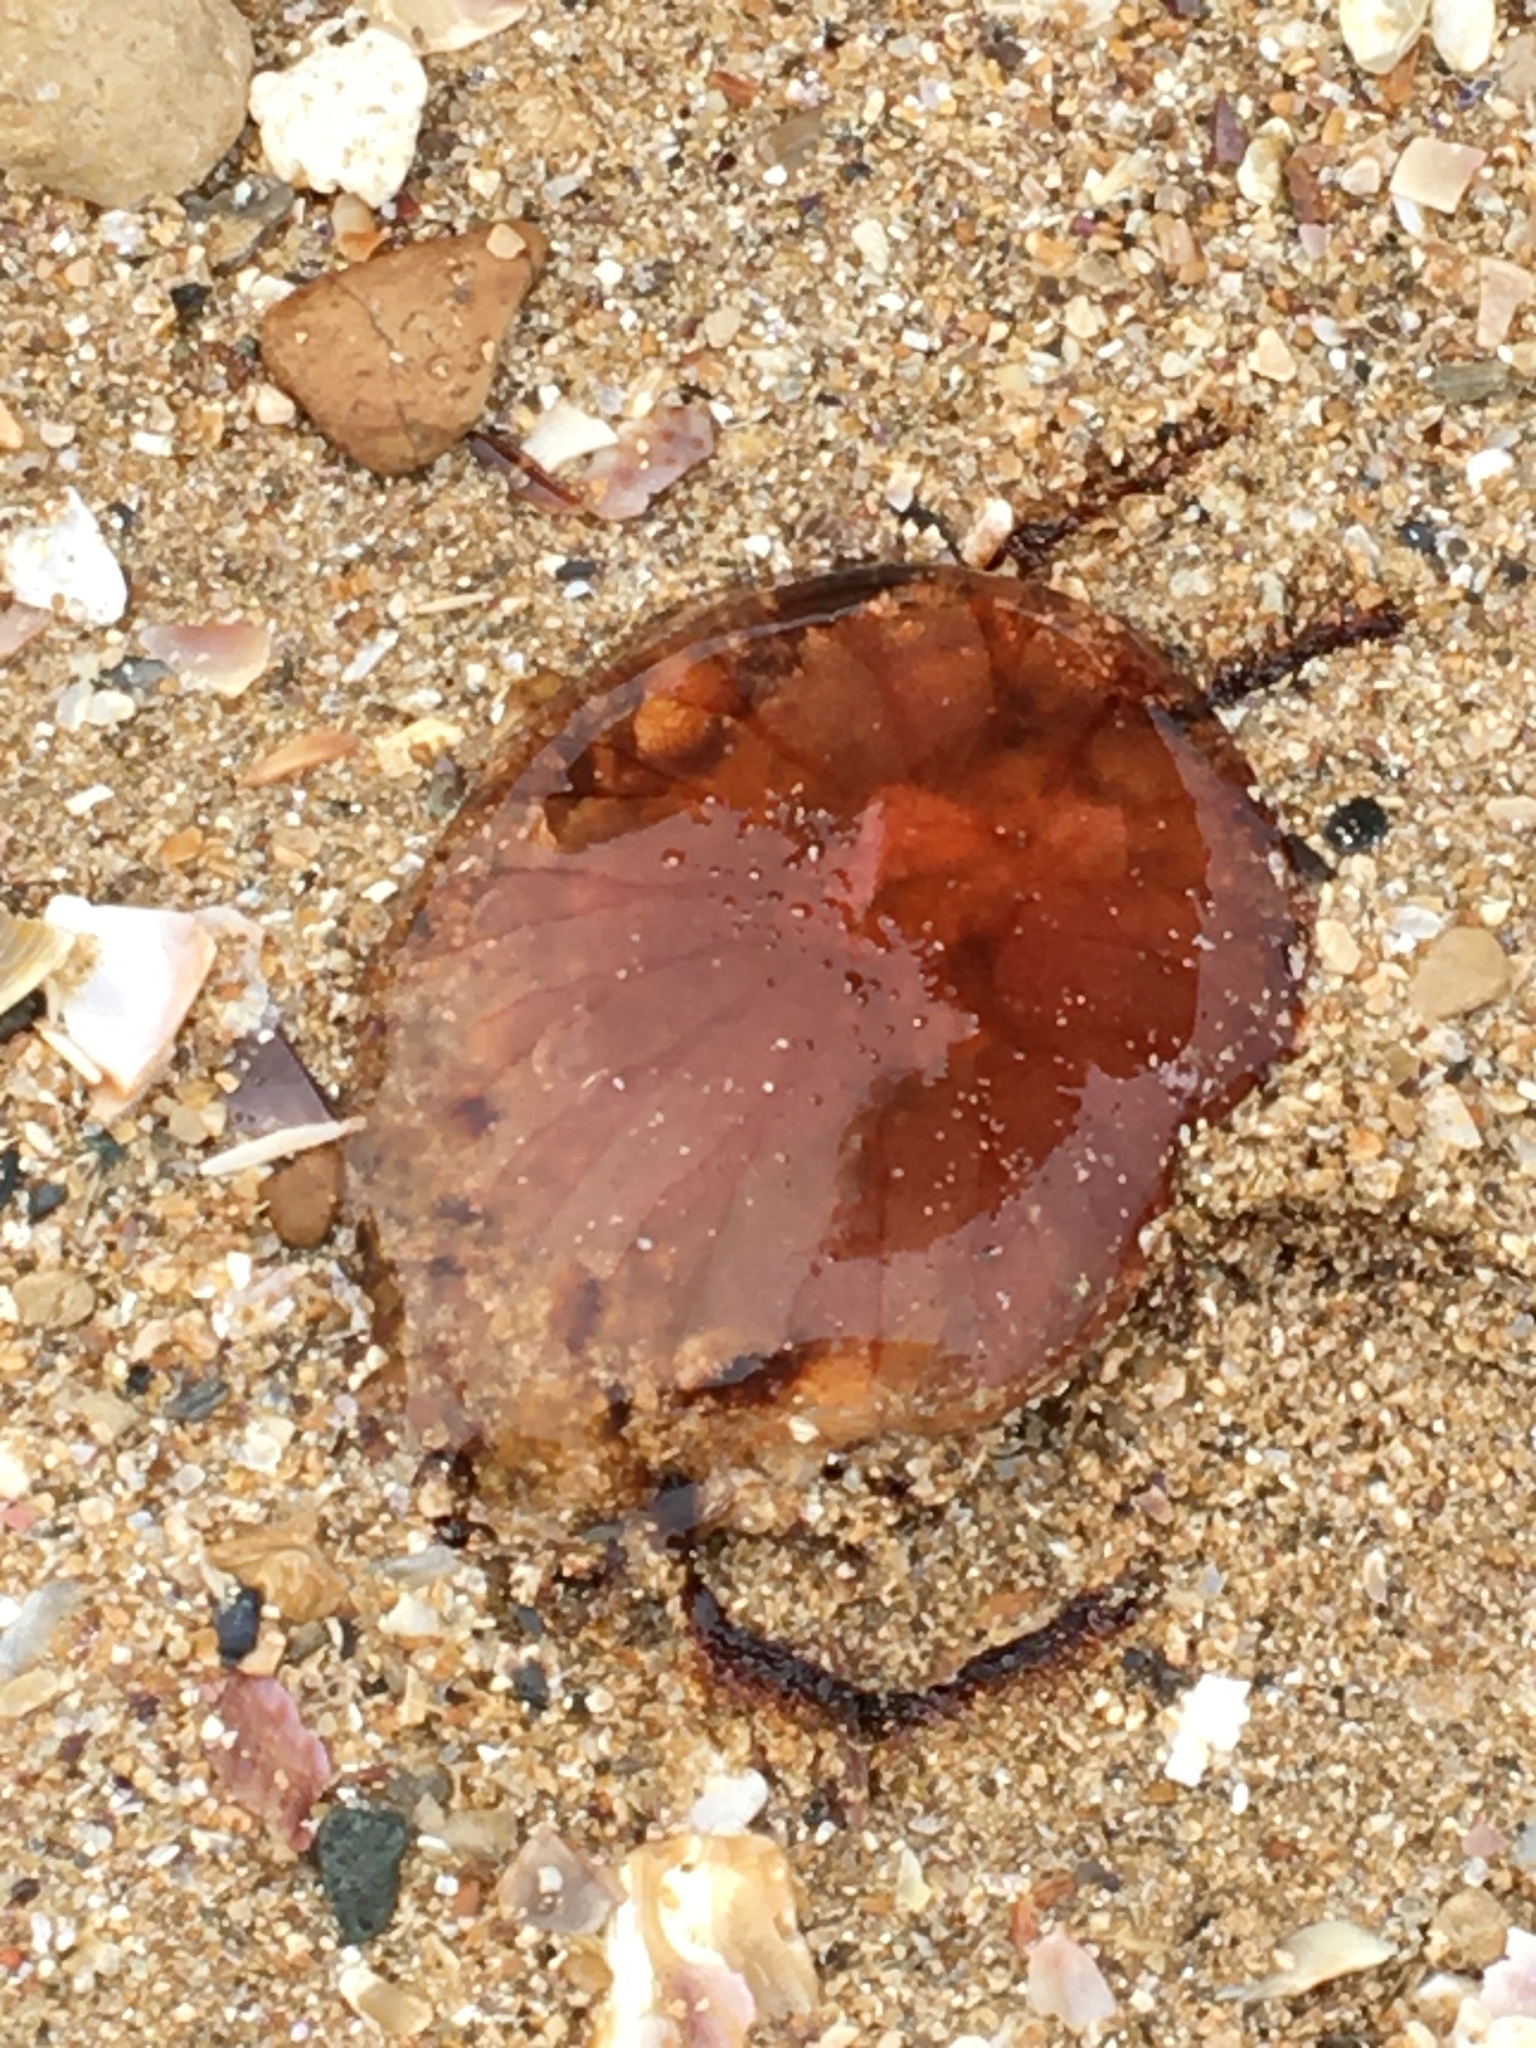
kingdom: Animalia
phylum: Cnidaria
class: Scyphozoa
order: Semaeostomeae
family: Pelagiidae
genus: Chrysaora
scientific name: Chrysaora hysoscella
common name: Compass jellyfish
